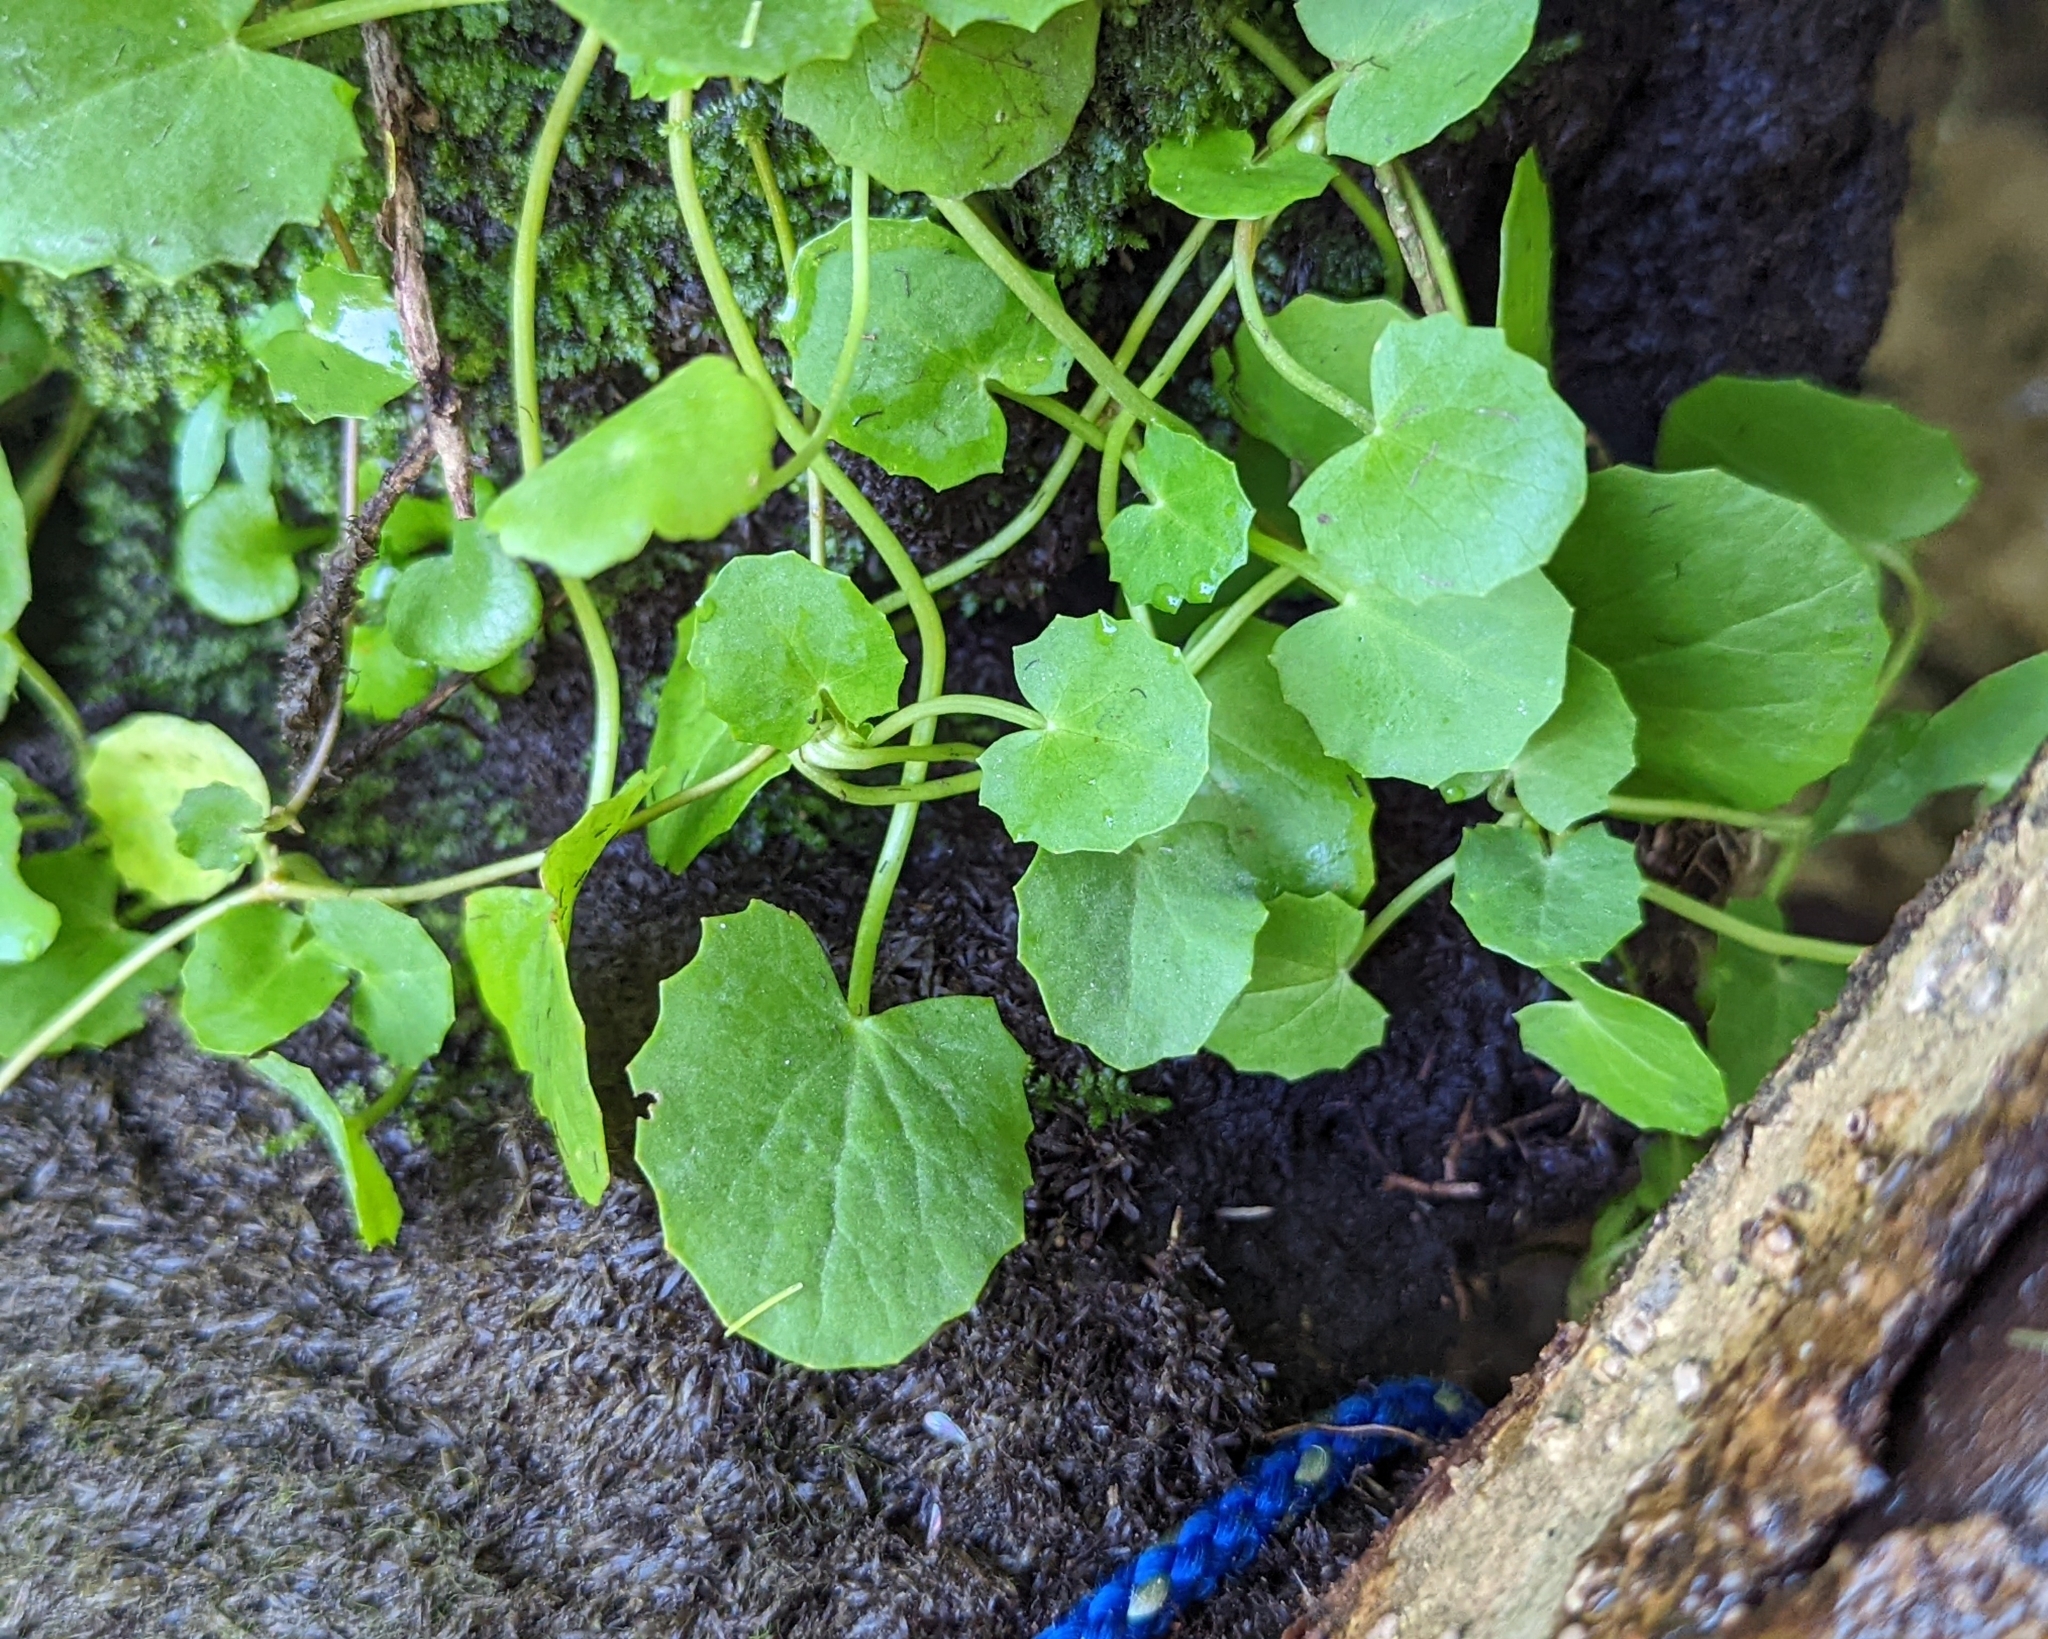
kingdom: Plantae
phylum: Tracheophyta
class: Magnoliopsida
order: Apiales
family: Apiaceae
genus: Centella
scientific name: Centella erecta
